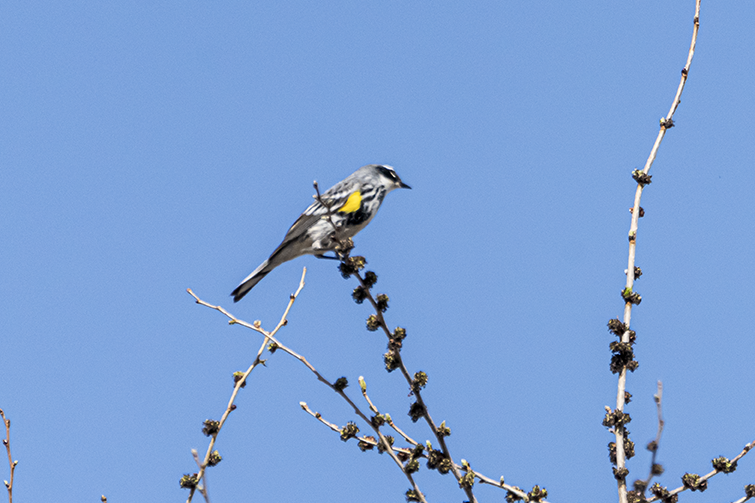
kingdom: Animalia
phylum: Chordata
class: Aves
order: Passeriformes
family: Parulidae
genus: Setophaga
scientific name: Setophaga coronata
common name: Myrtle warbler
